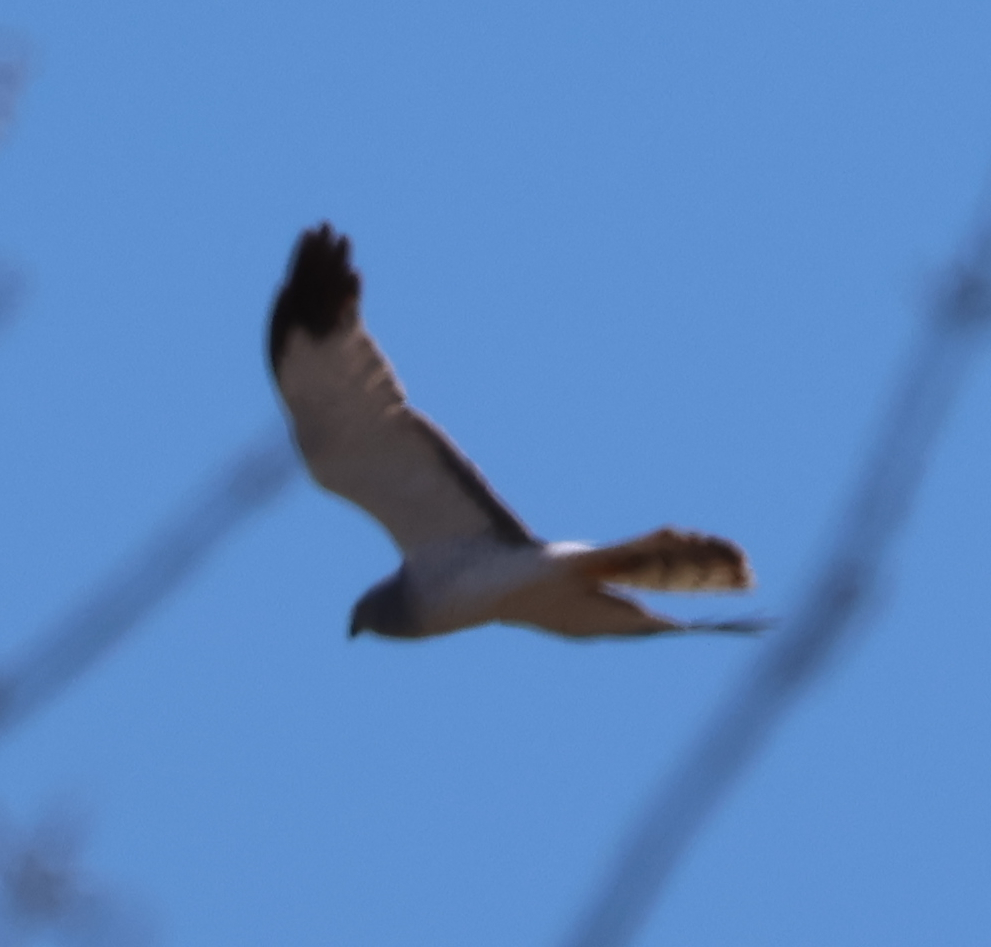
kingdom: Animalia
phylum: Chordata
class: Aves
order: Accipitriformes
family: Accipitridae
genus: Circus
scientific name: Circus cyaneus
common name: Hen harrier
